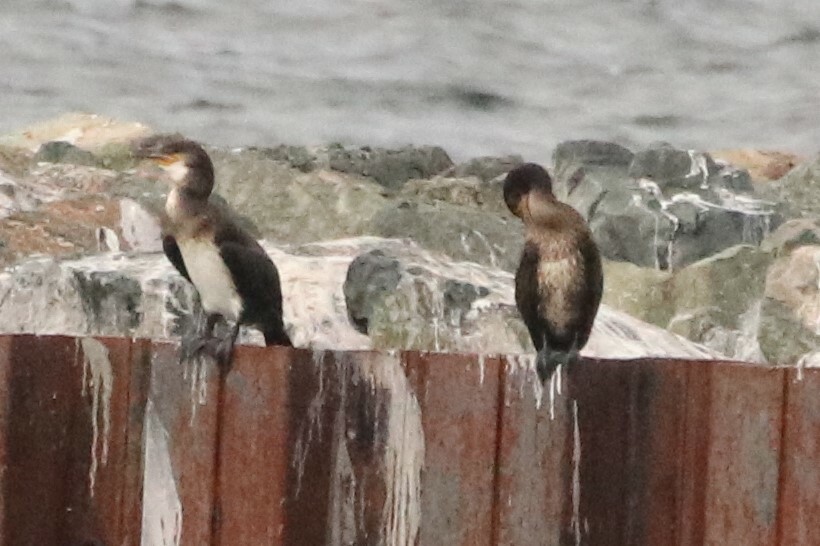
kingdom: Animalia
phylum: Chordata
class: Aves
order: Suliformes
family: Phalacrocoracidae
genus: Phalacrocorax
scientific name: Phalacrocorax carbo
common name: Great cormorant
